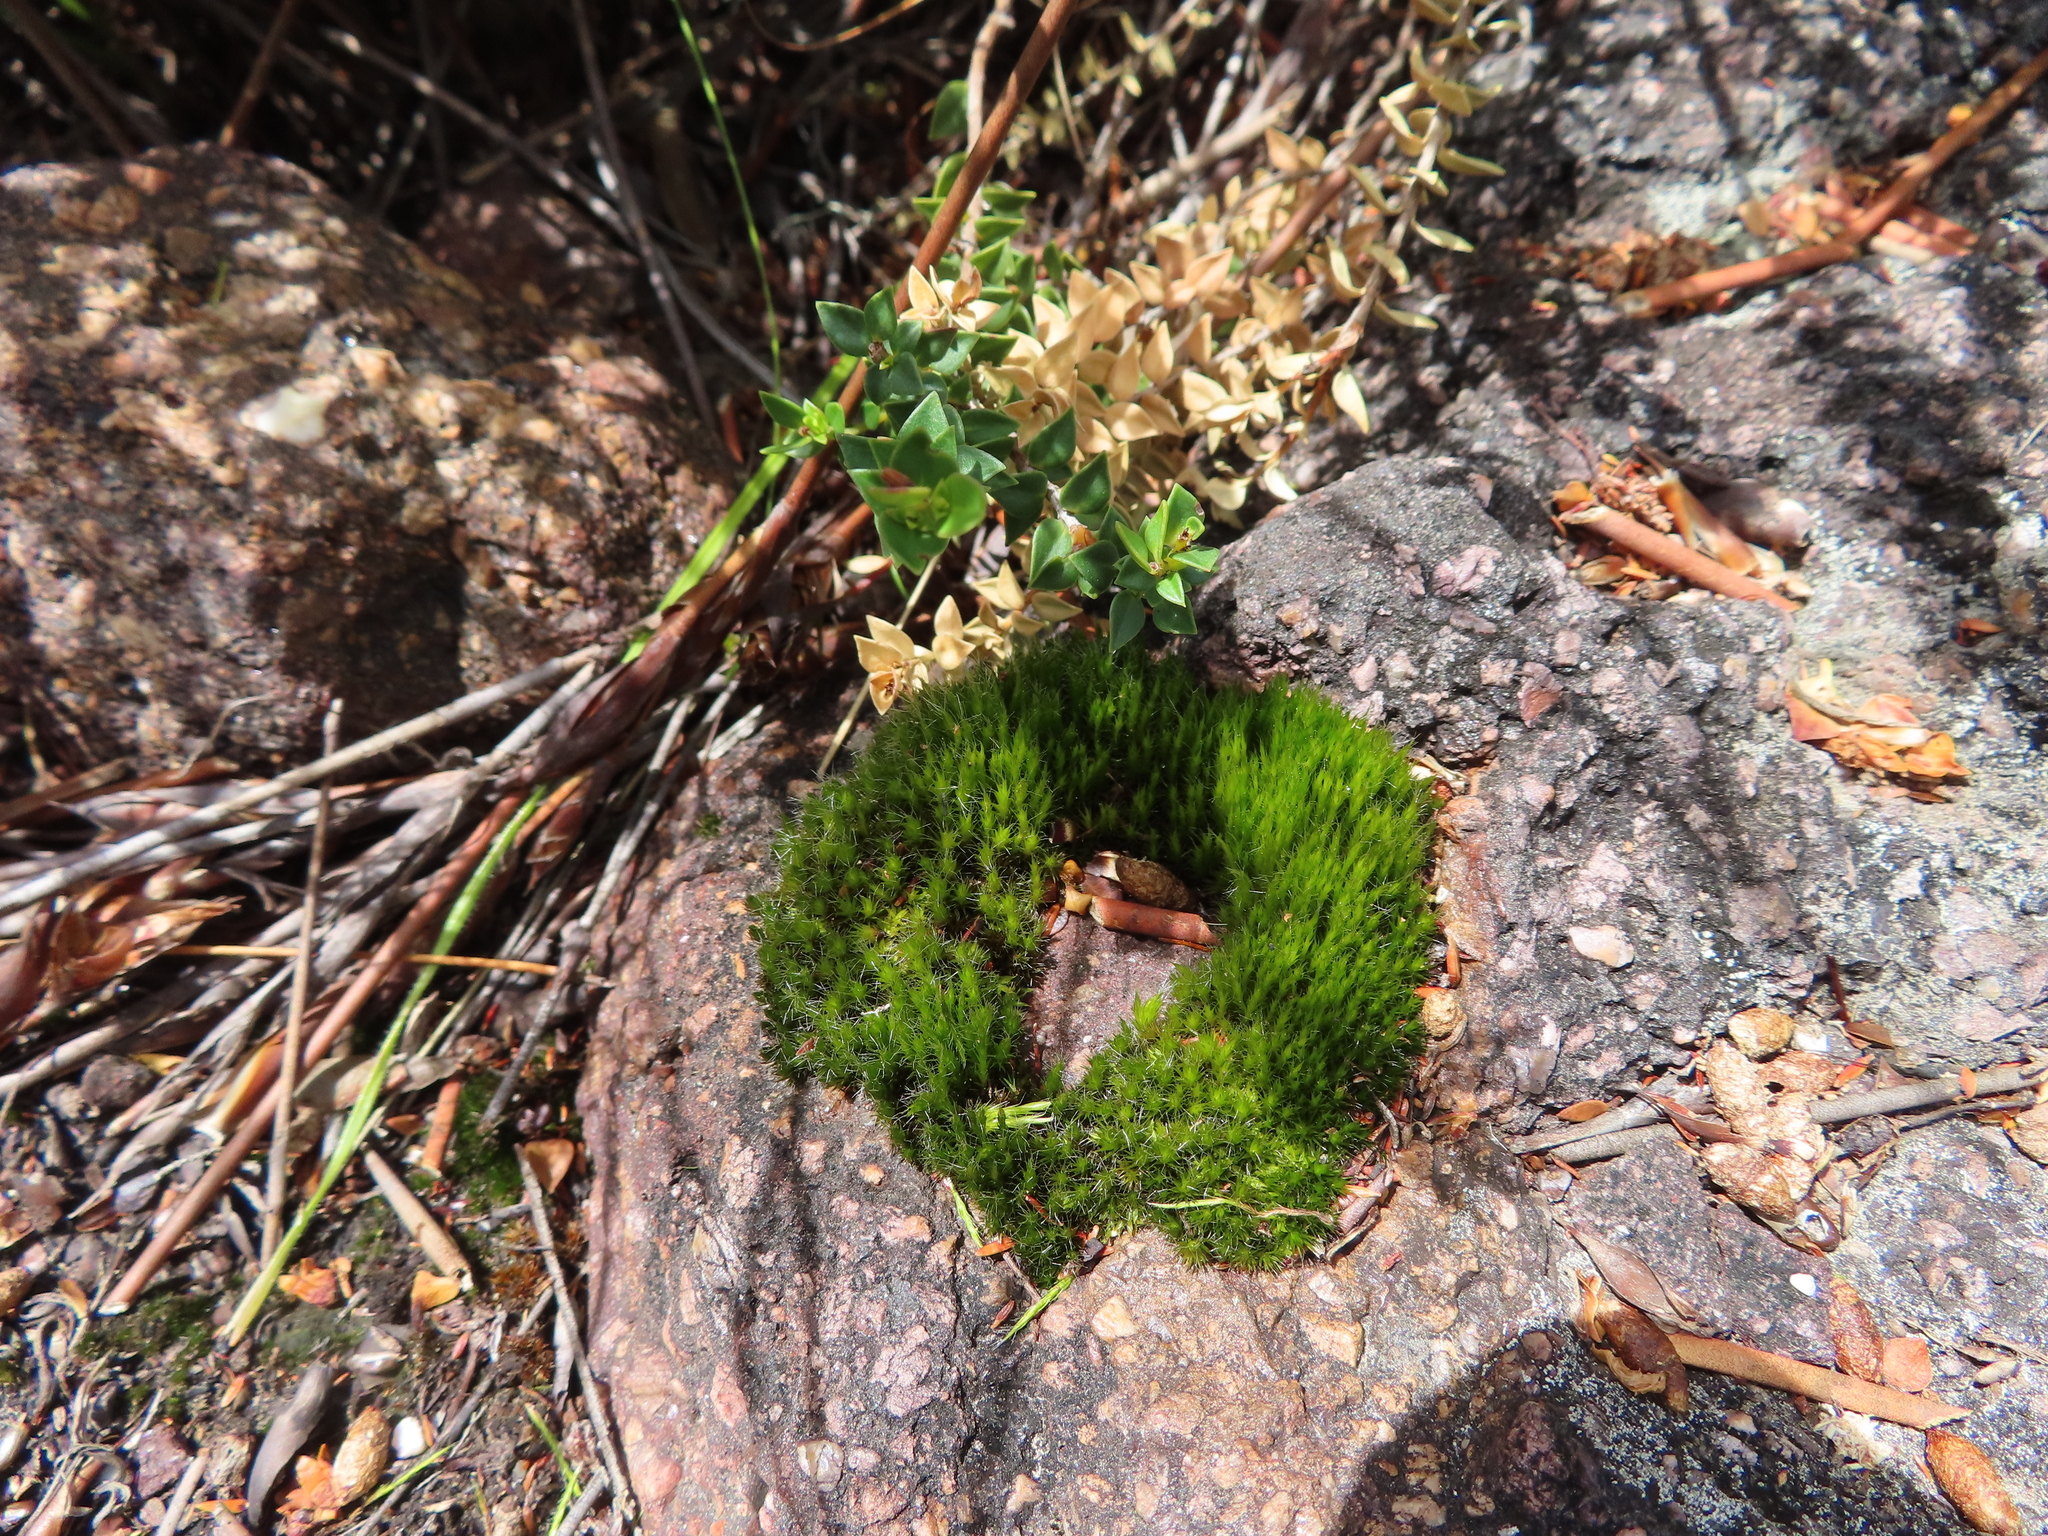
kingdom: Plantae
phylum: Bryophyta
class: Bryopsida
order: Dicranales
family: Leucobryaceae
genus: Campylopus
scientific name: Campylopus introflexus
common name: Heath star moss
